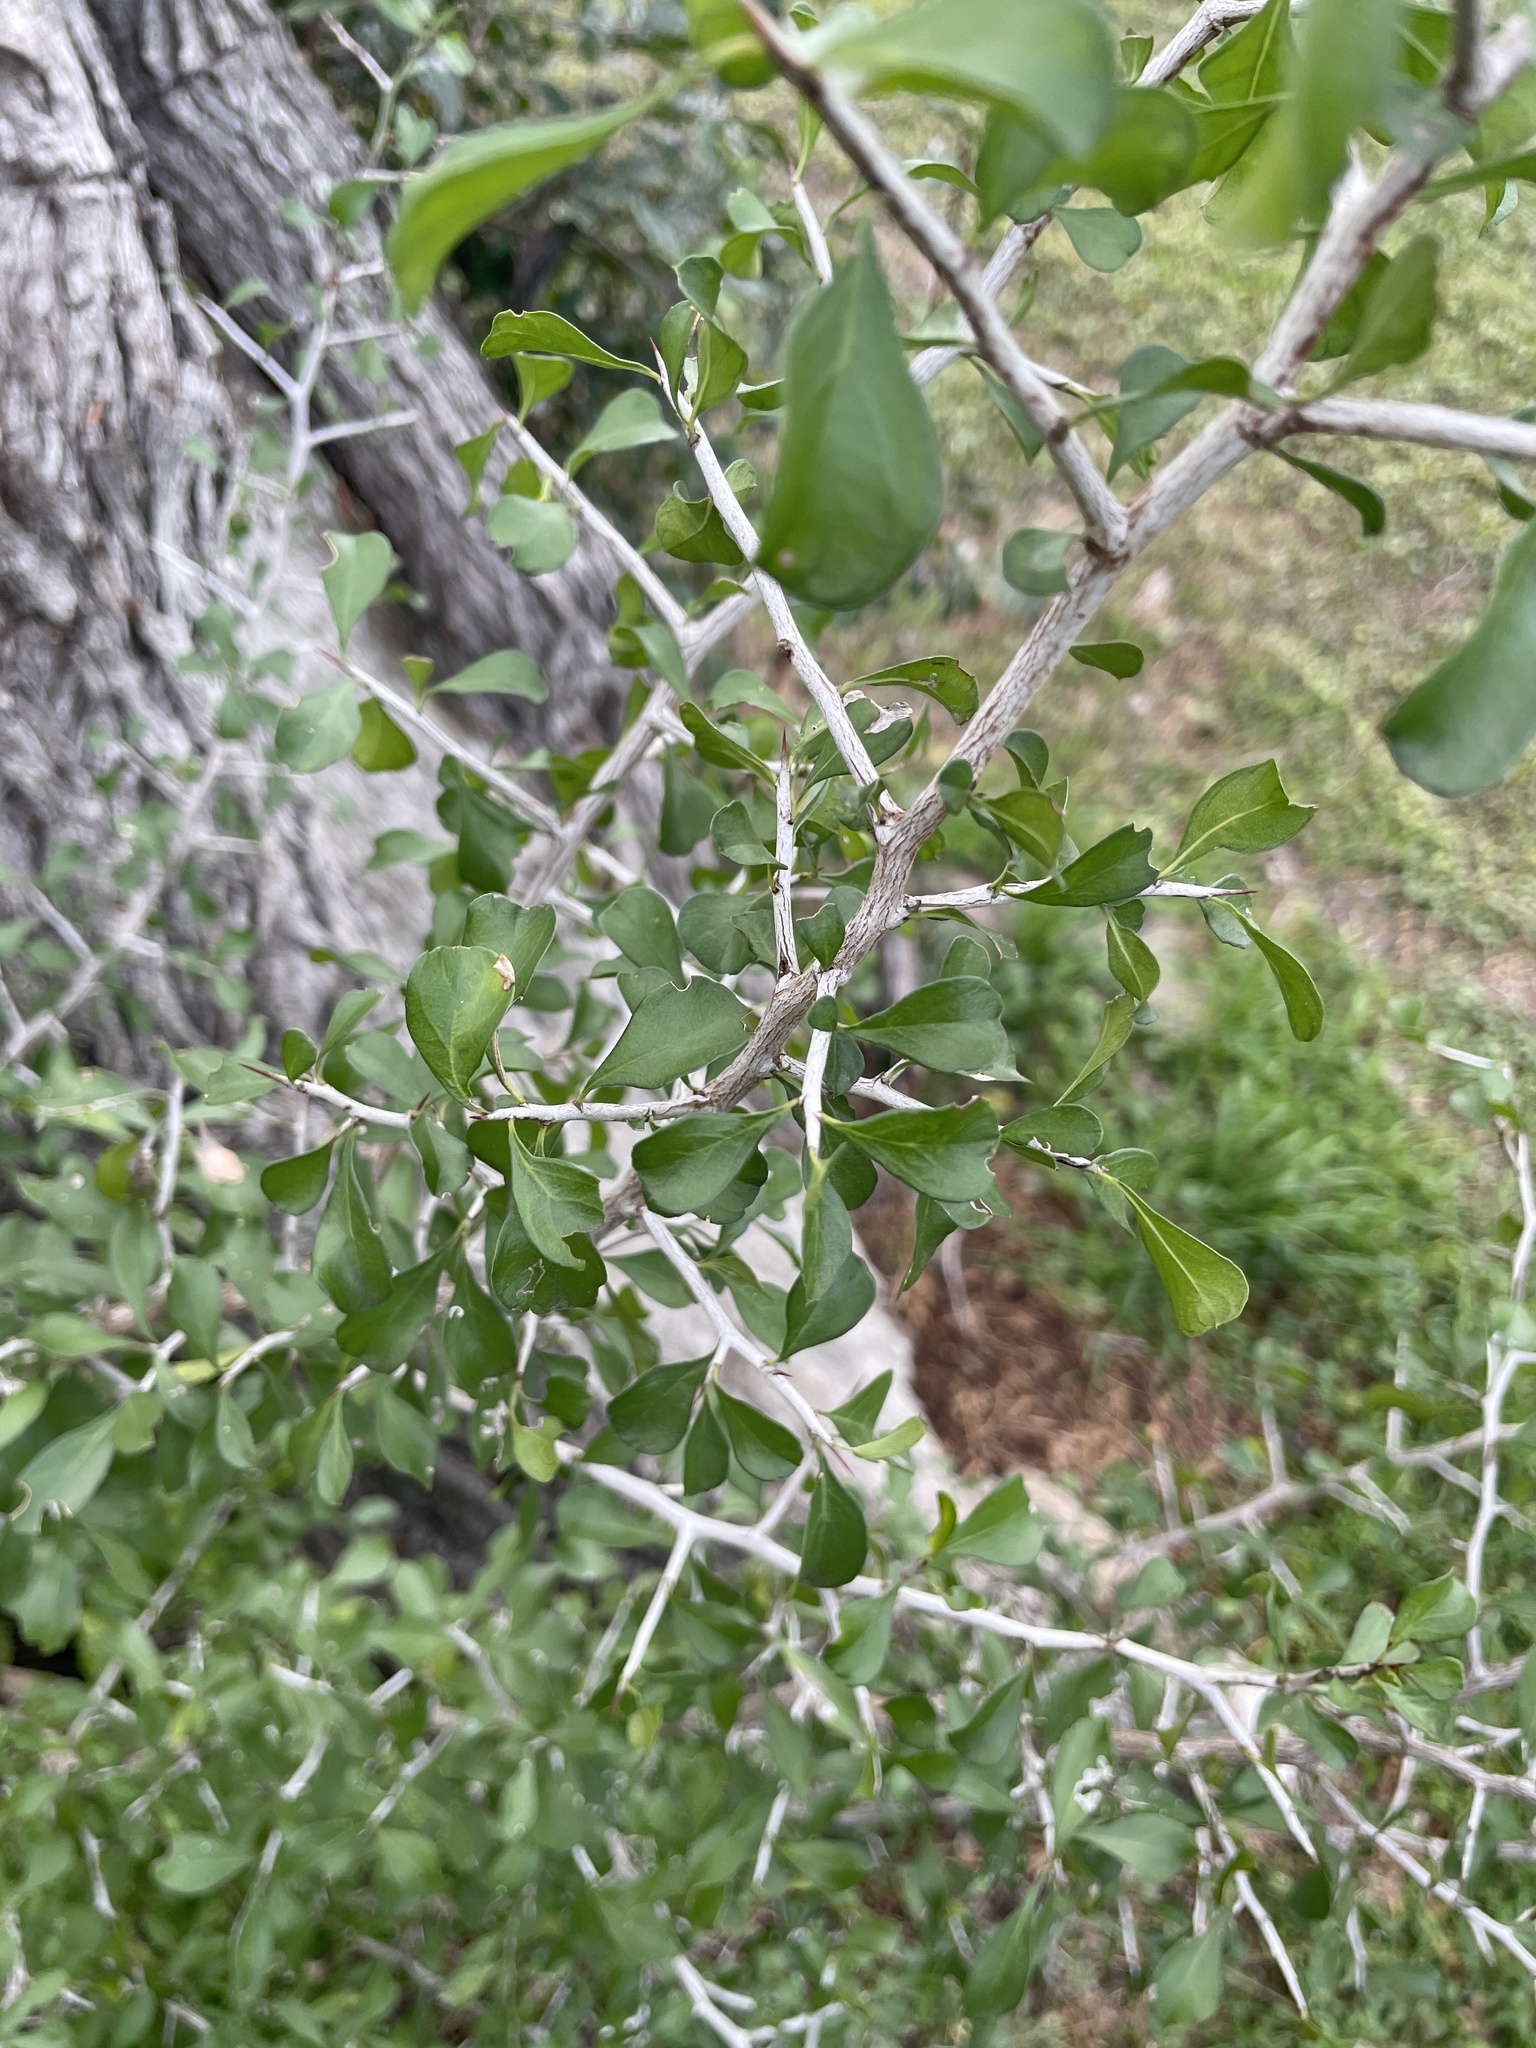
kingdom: Plantae
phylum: Tracheophyta
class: Magnoliopsida
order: Rosales
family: Rhamnaceae
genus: Condalia
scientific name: Condalia hookeri
